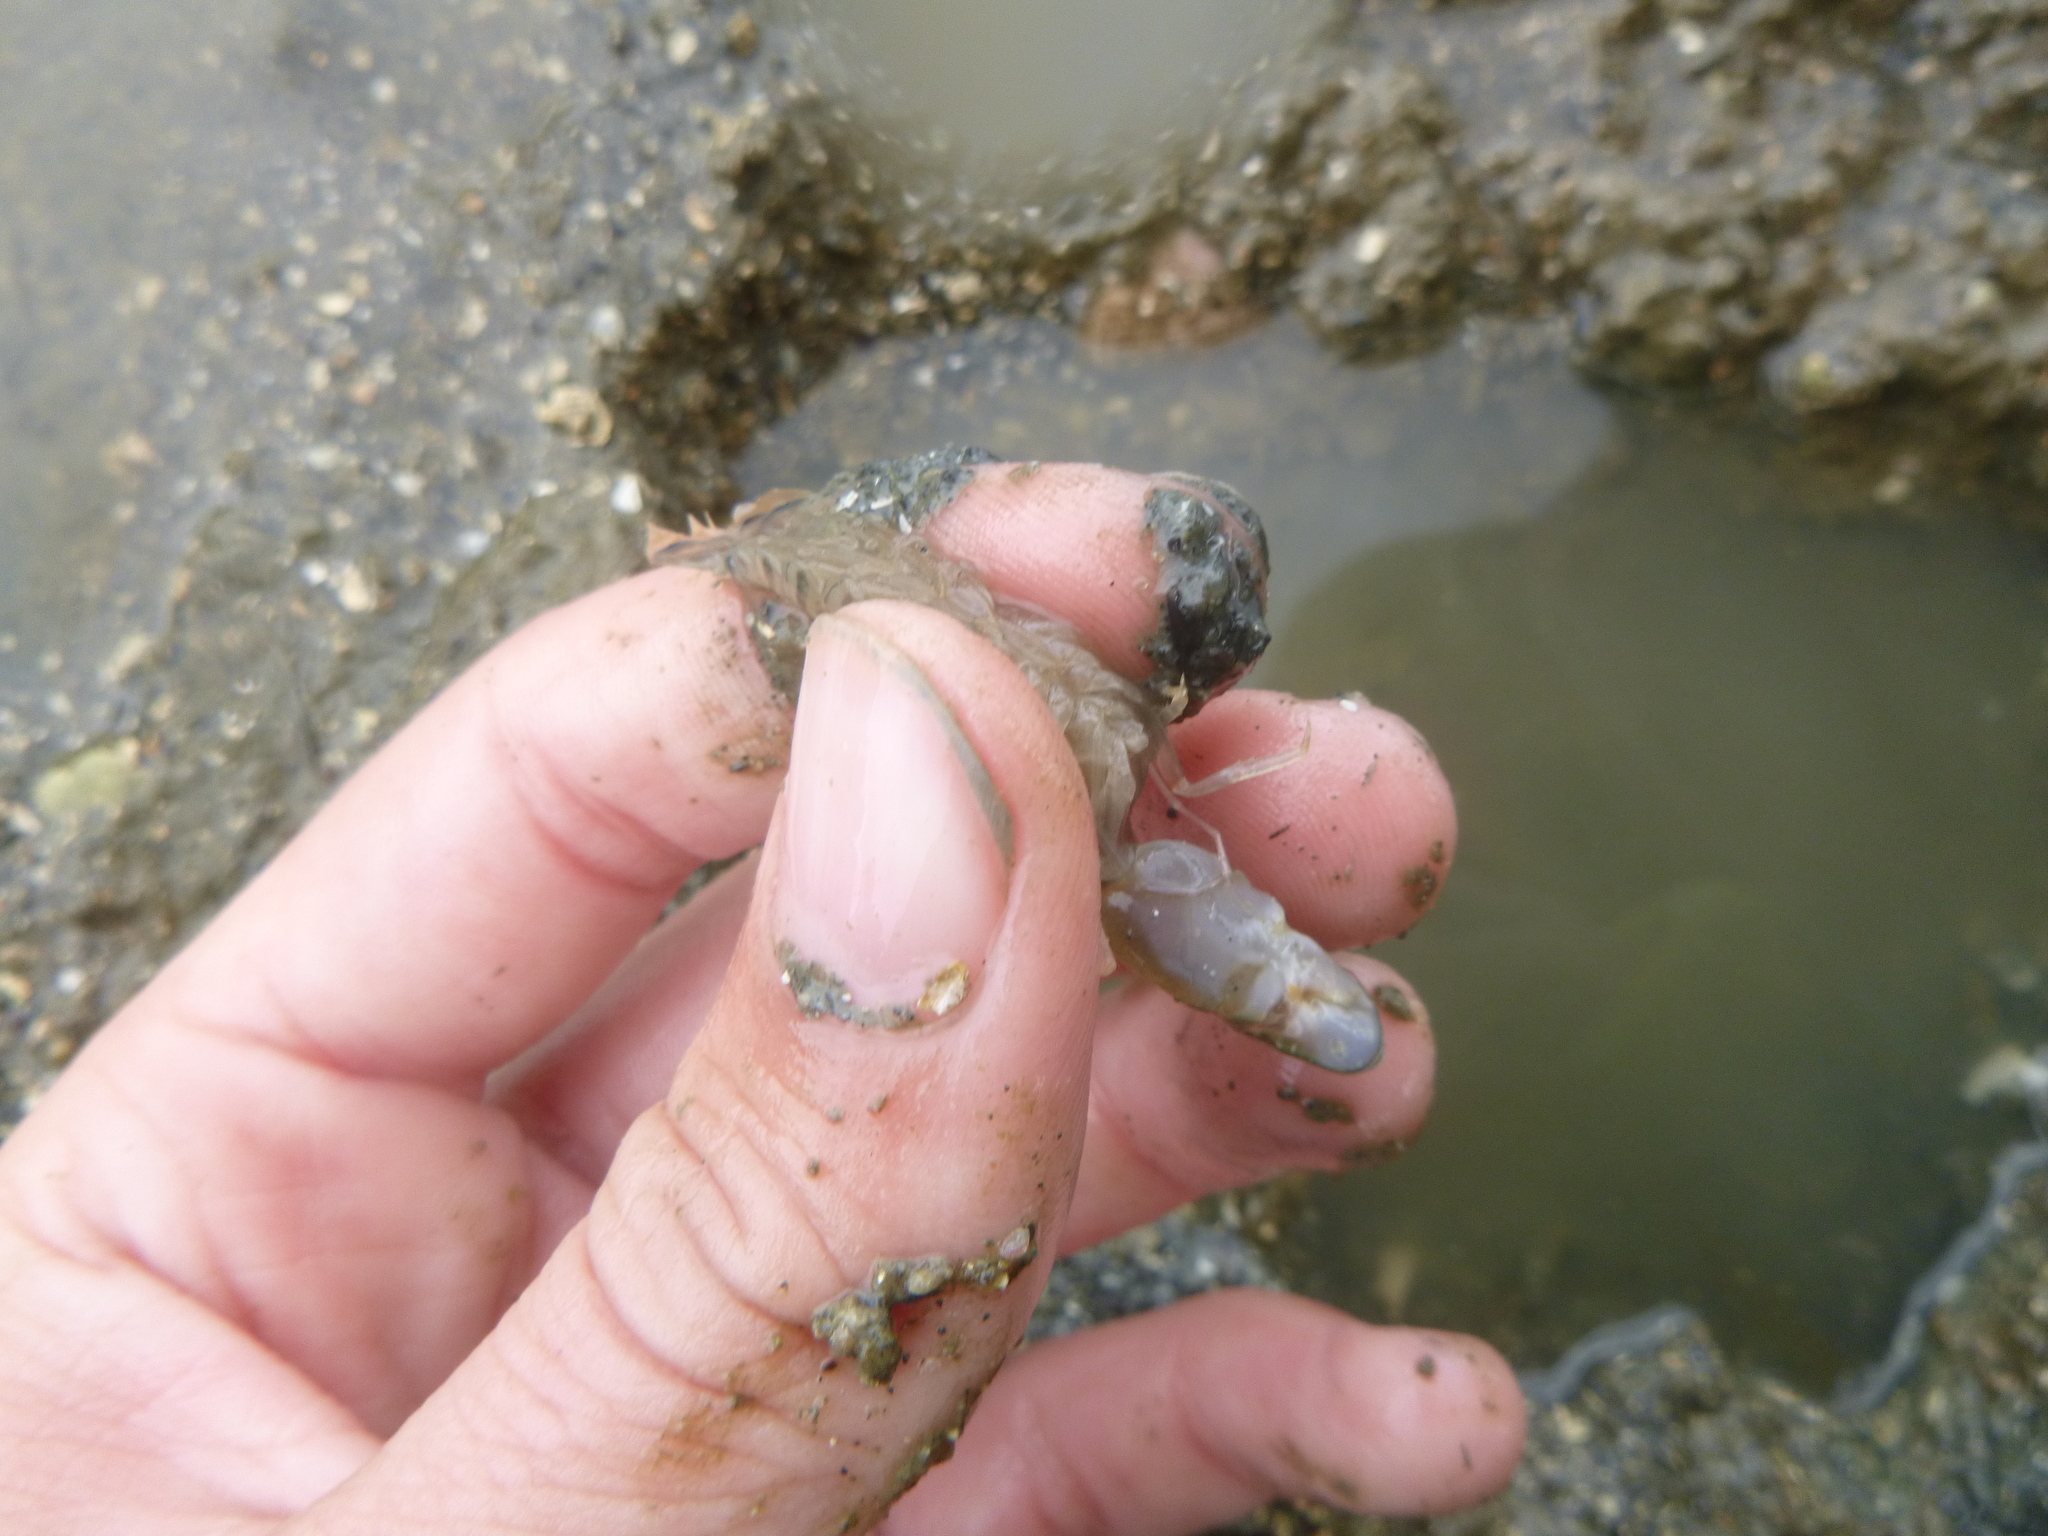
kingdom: Animalia
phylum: Arthropoda
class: Malacostraca
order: Decapoda
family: Alpheidae
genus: Alpheus
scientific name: Alpheus richardsoni
